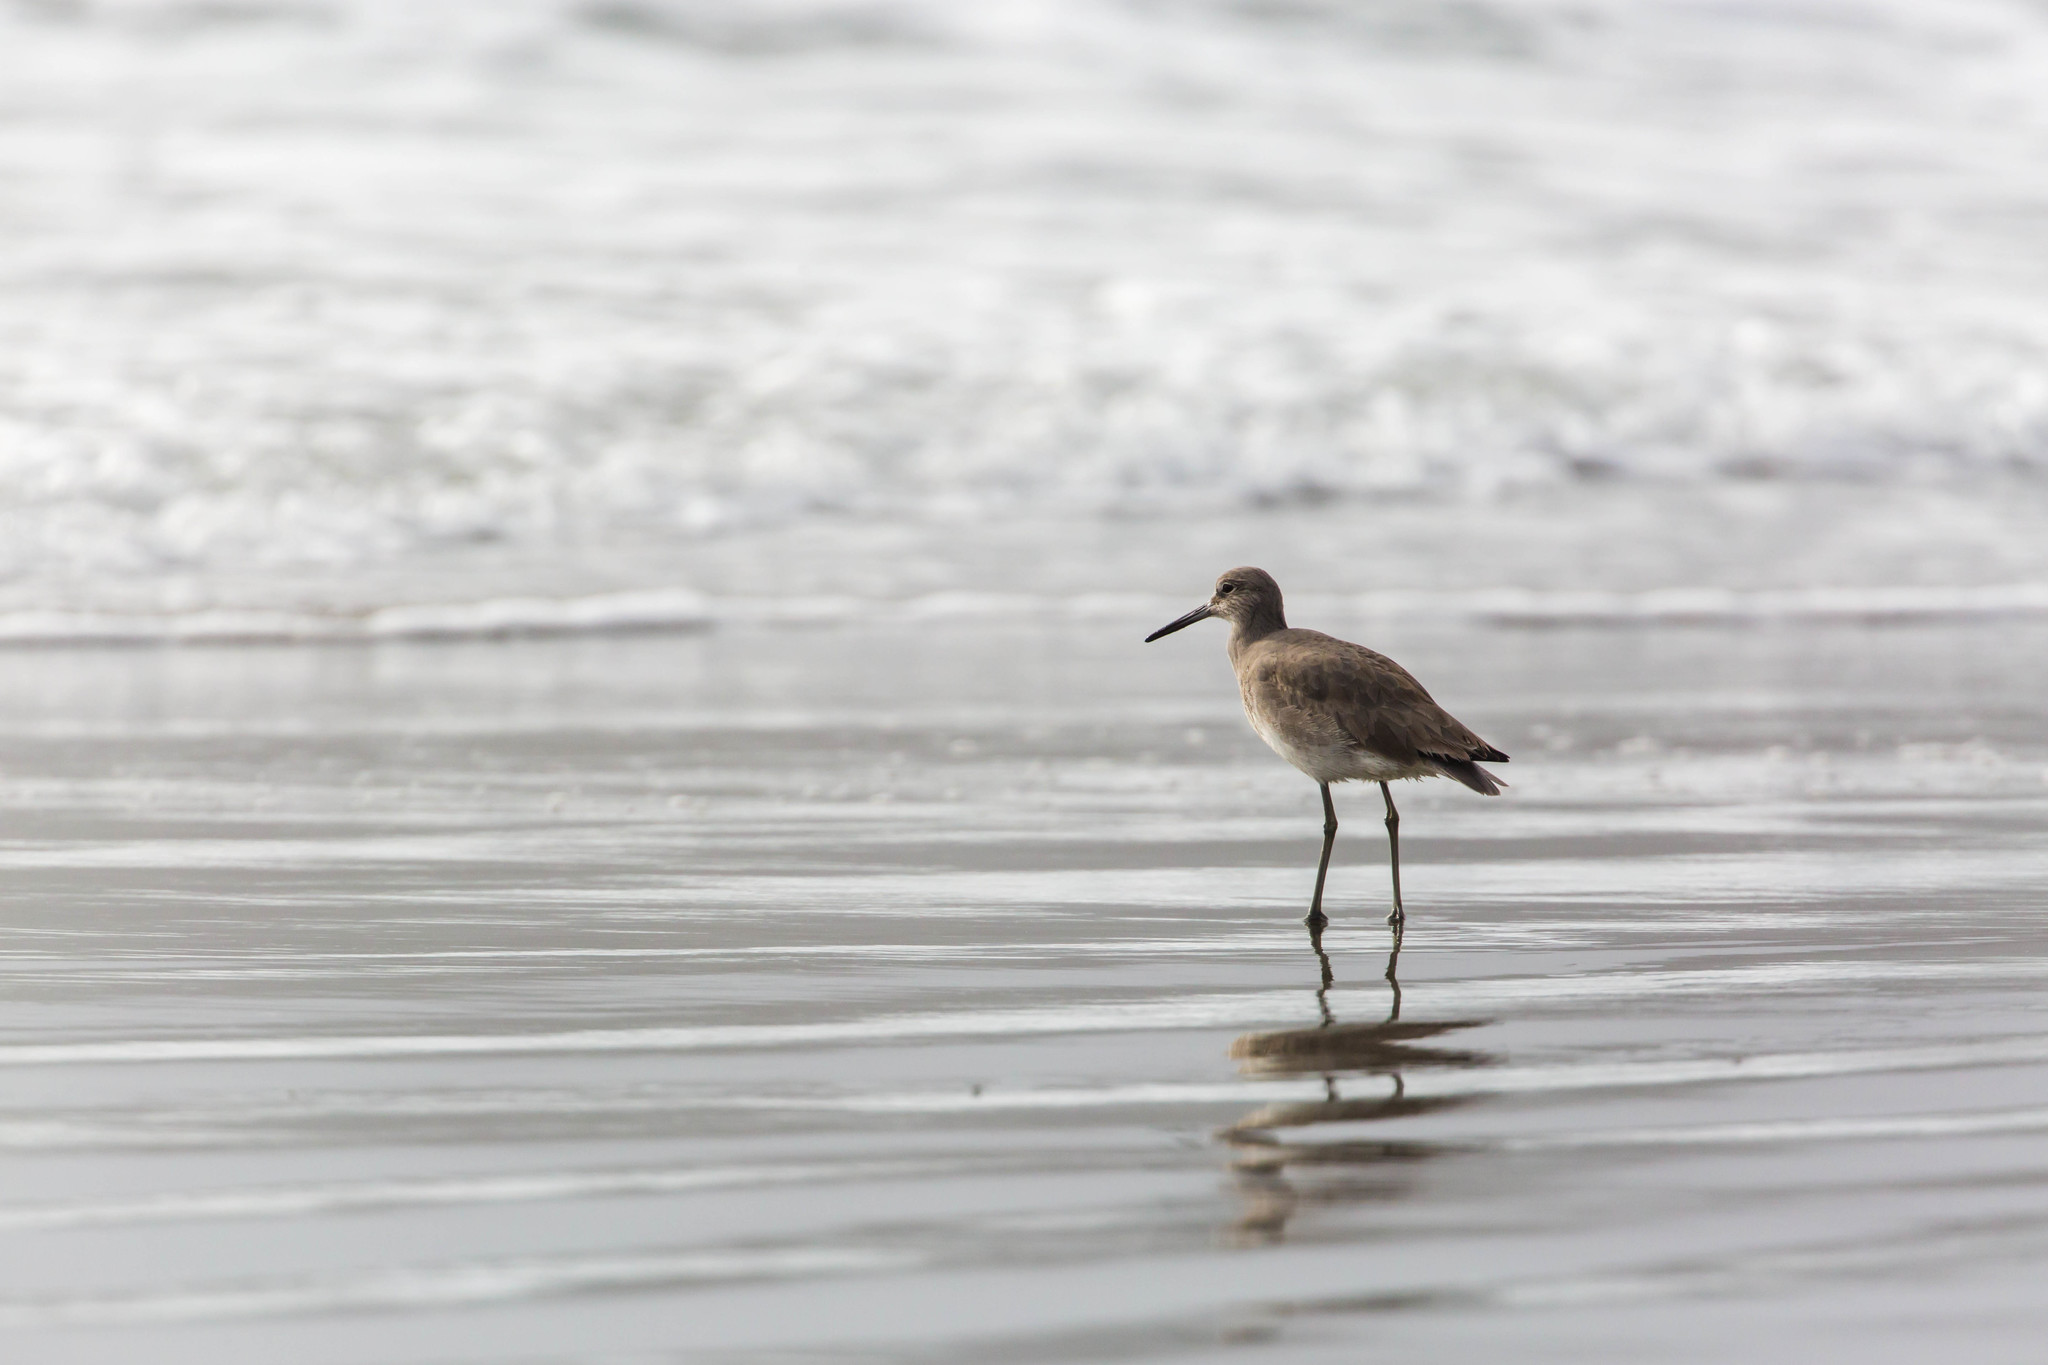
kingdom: Animalia
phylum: Chordata
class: Aves
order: Charadriiformes
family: Scolopacidae
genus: Tringa
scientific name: Tringa semipalmata
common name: Willet
